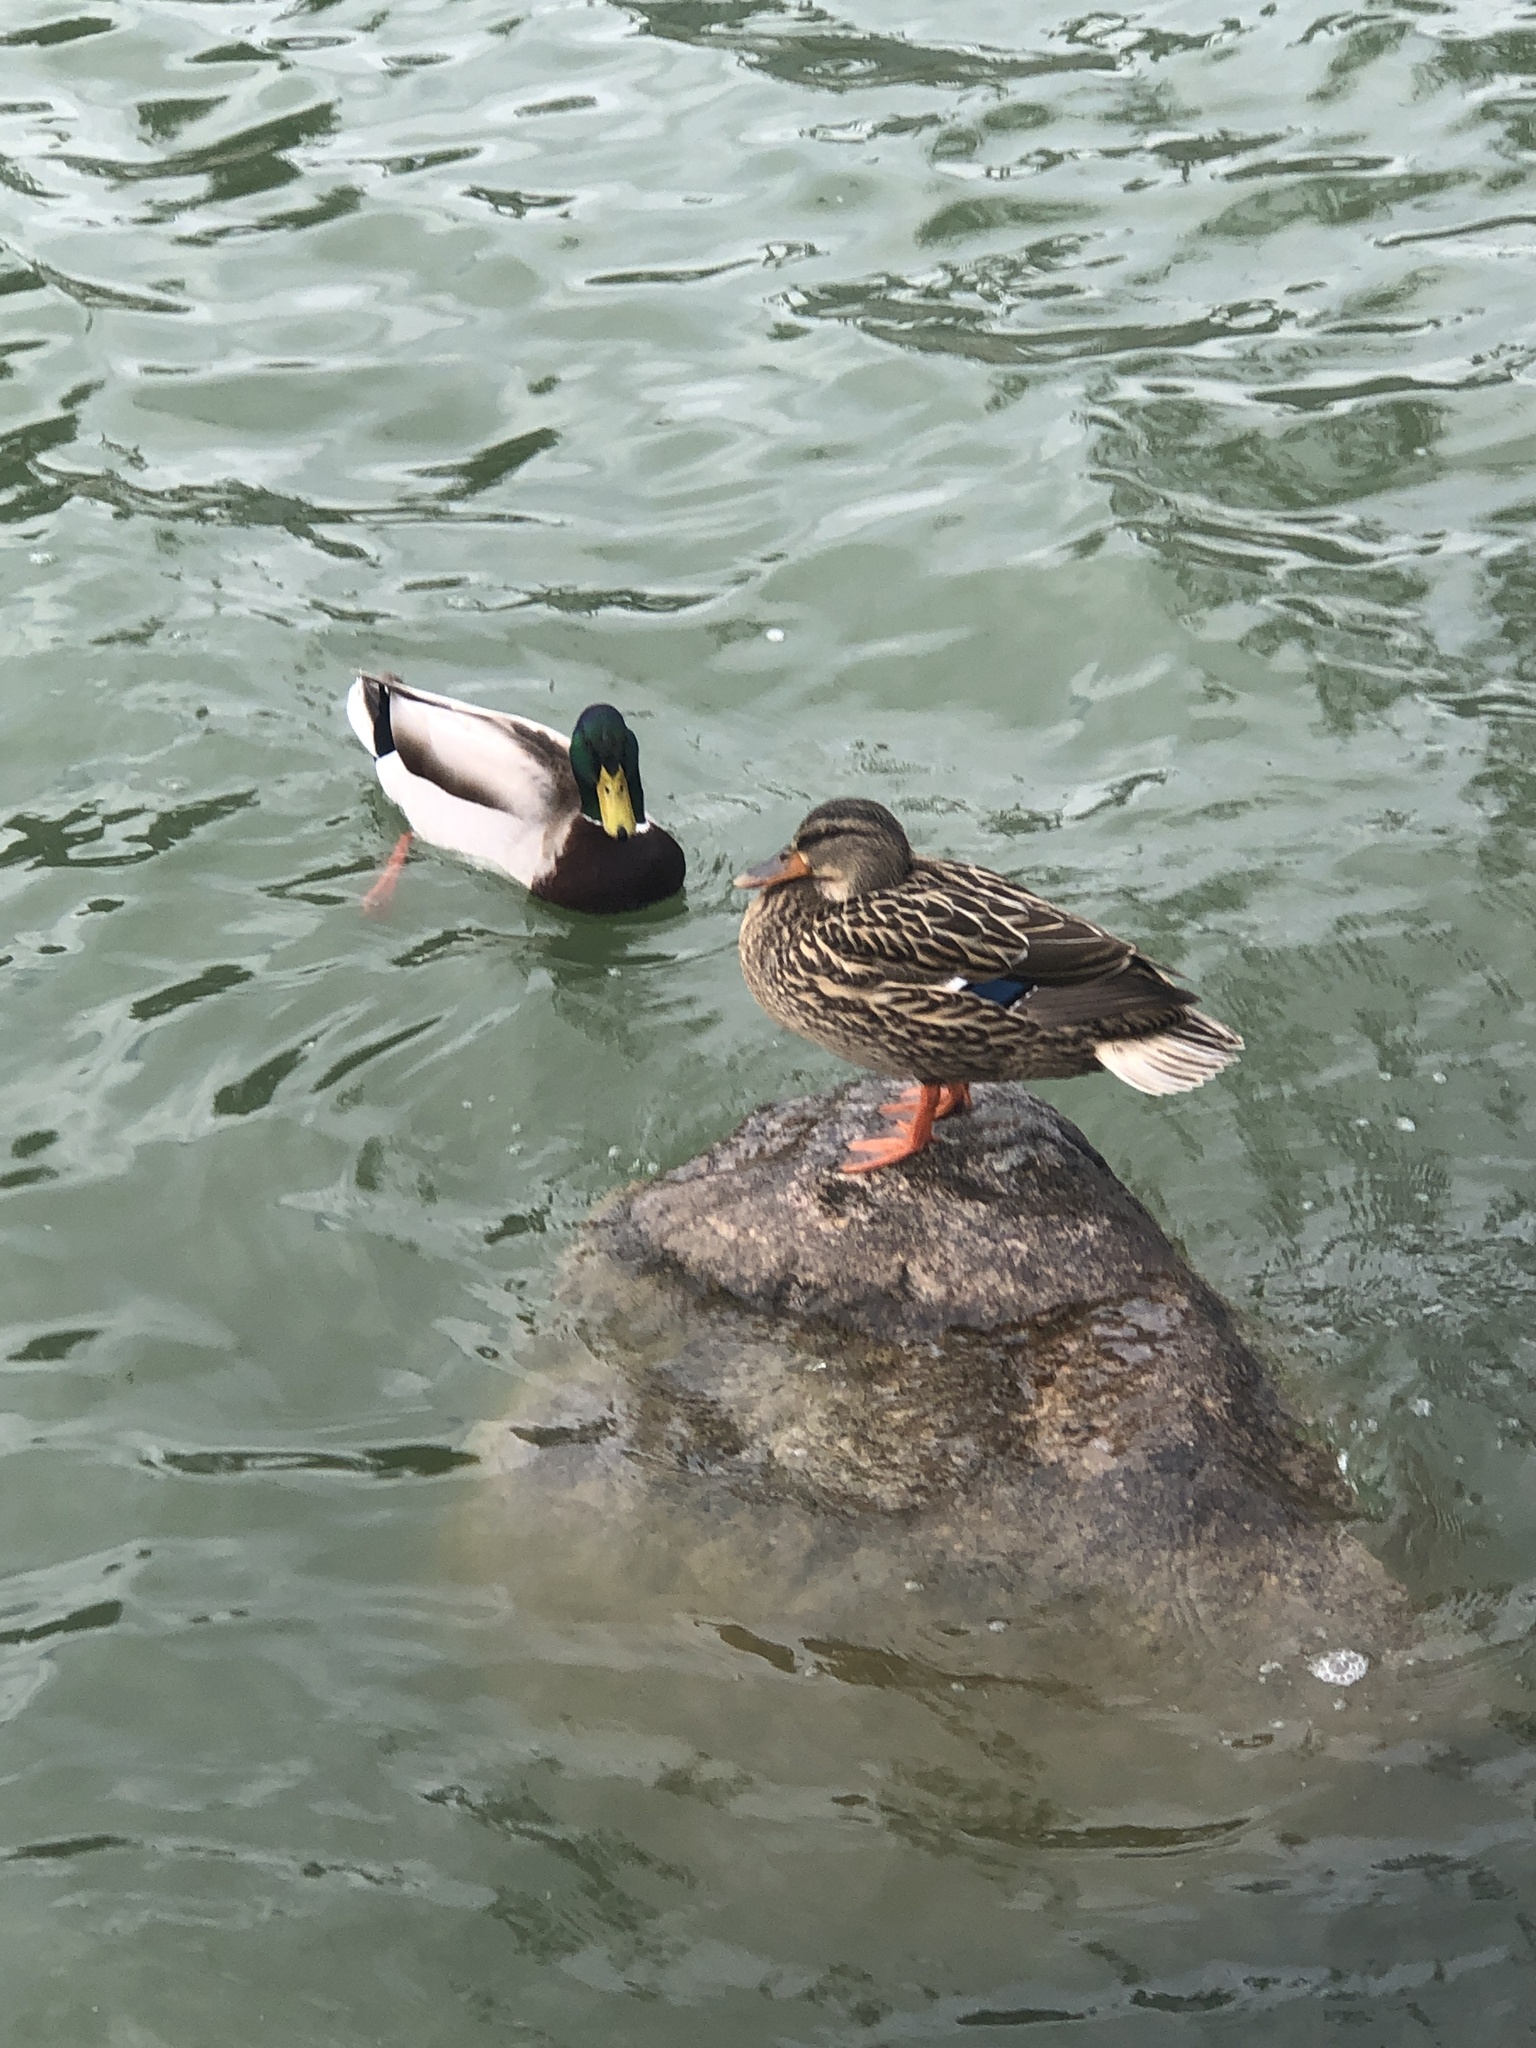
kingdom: Animalia
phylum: Chordata
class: Aves
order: Anseriformes
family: Anatidae
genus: Anas
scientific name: Anas platyrhynchos
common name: Mallard
